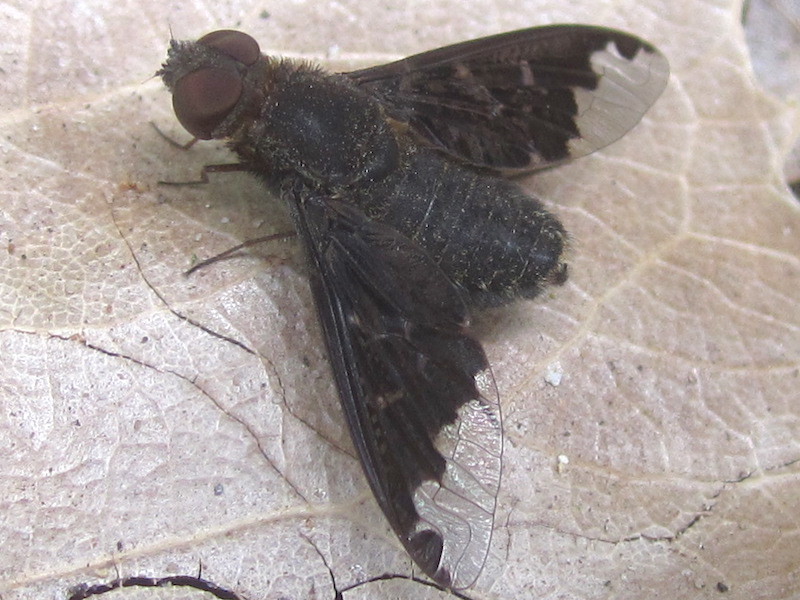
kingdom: Animalia
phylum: Arthropoda
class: Insecta
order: Diptera
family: Bombyliidae
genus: Hemipenthes
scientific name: Hemipenthes sinuosus
